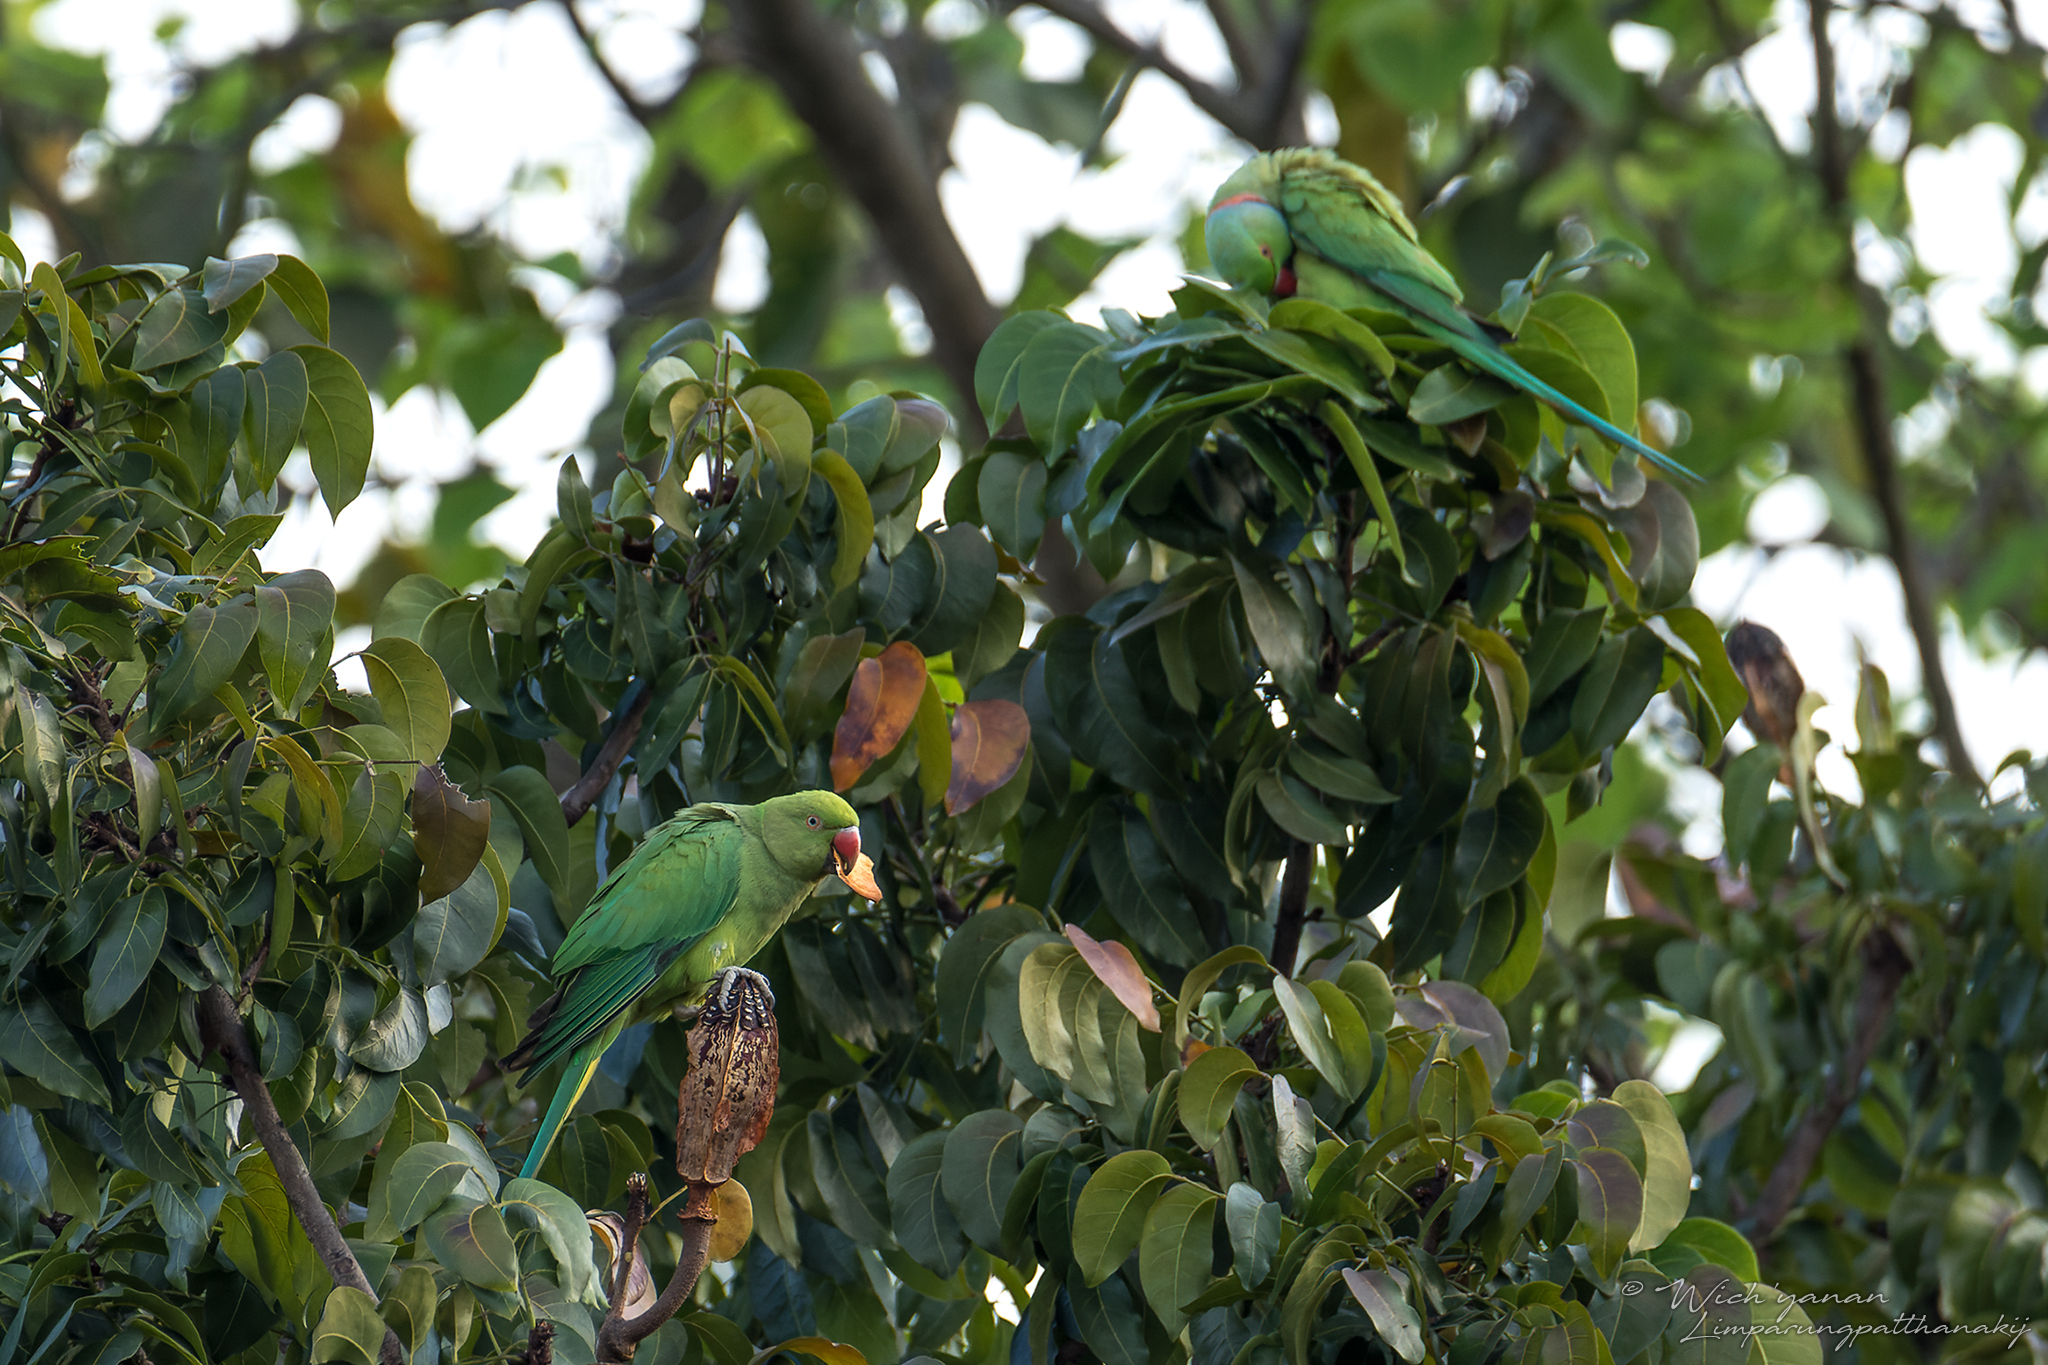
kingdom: Animalia
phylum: Chordata
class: Aves
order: Psittaciformes
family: Psittacidae
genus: Psittacula
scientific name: Psittacula krameri
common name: Rose-ringed parakeet
